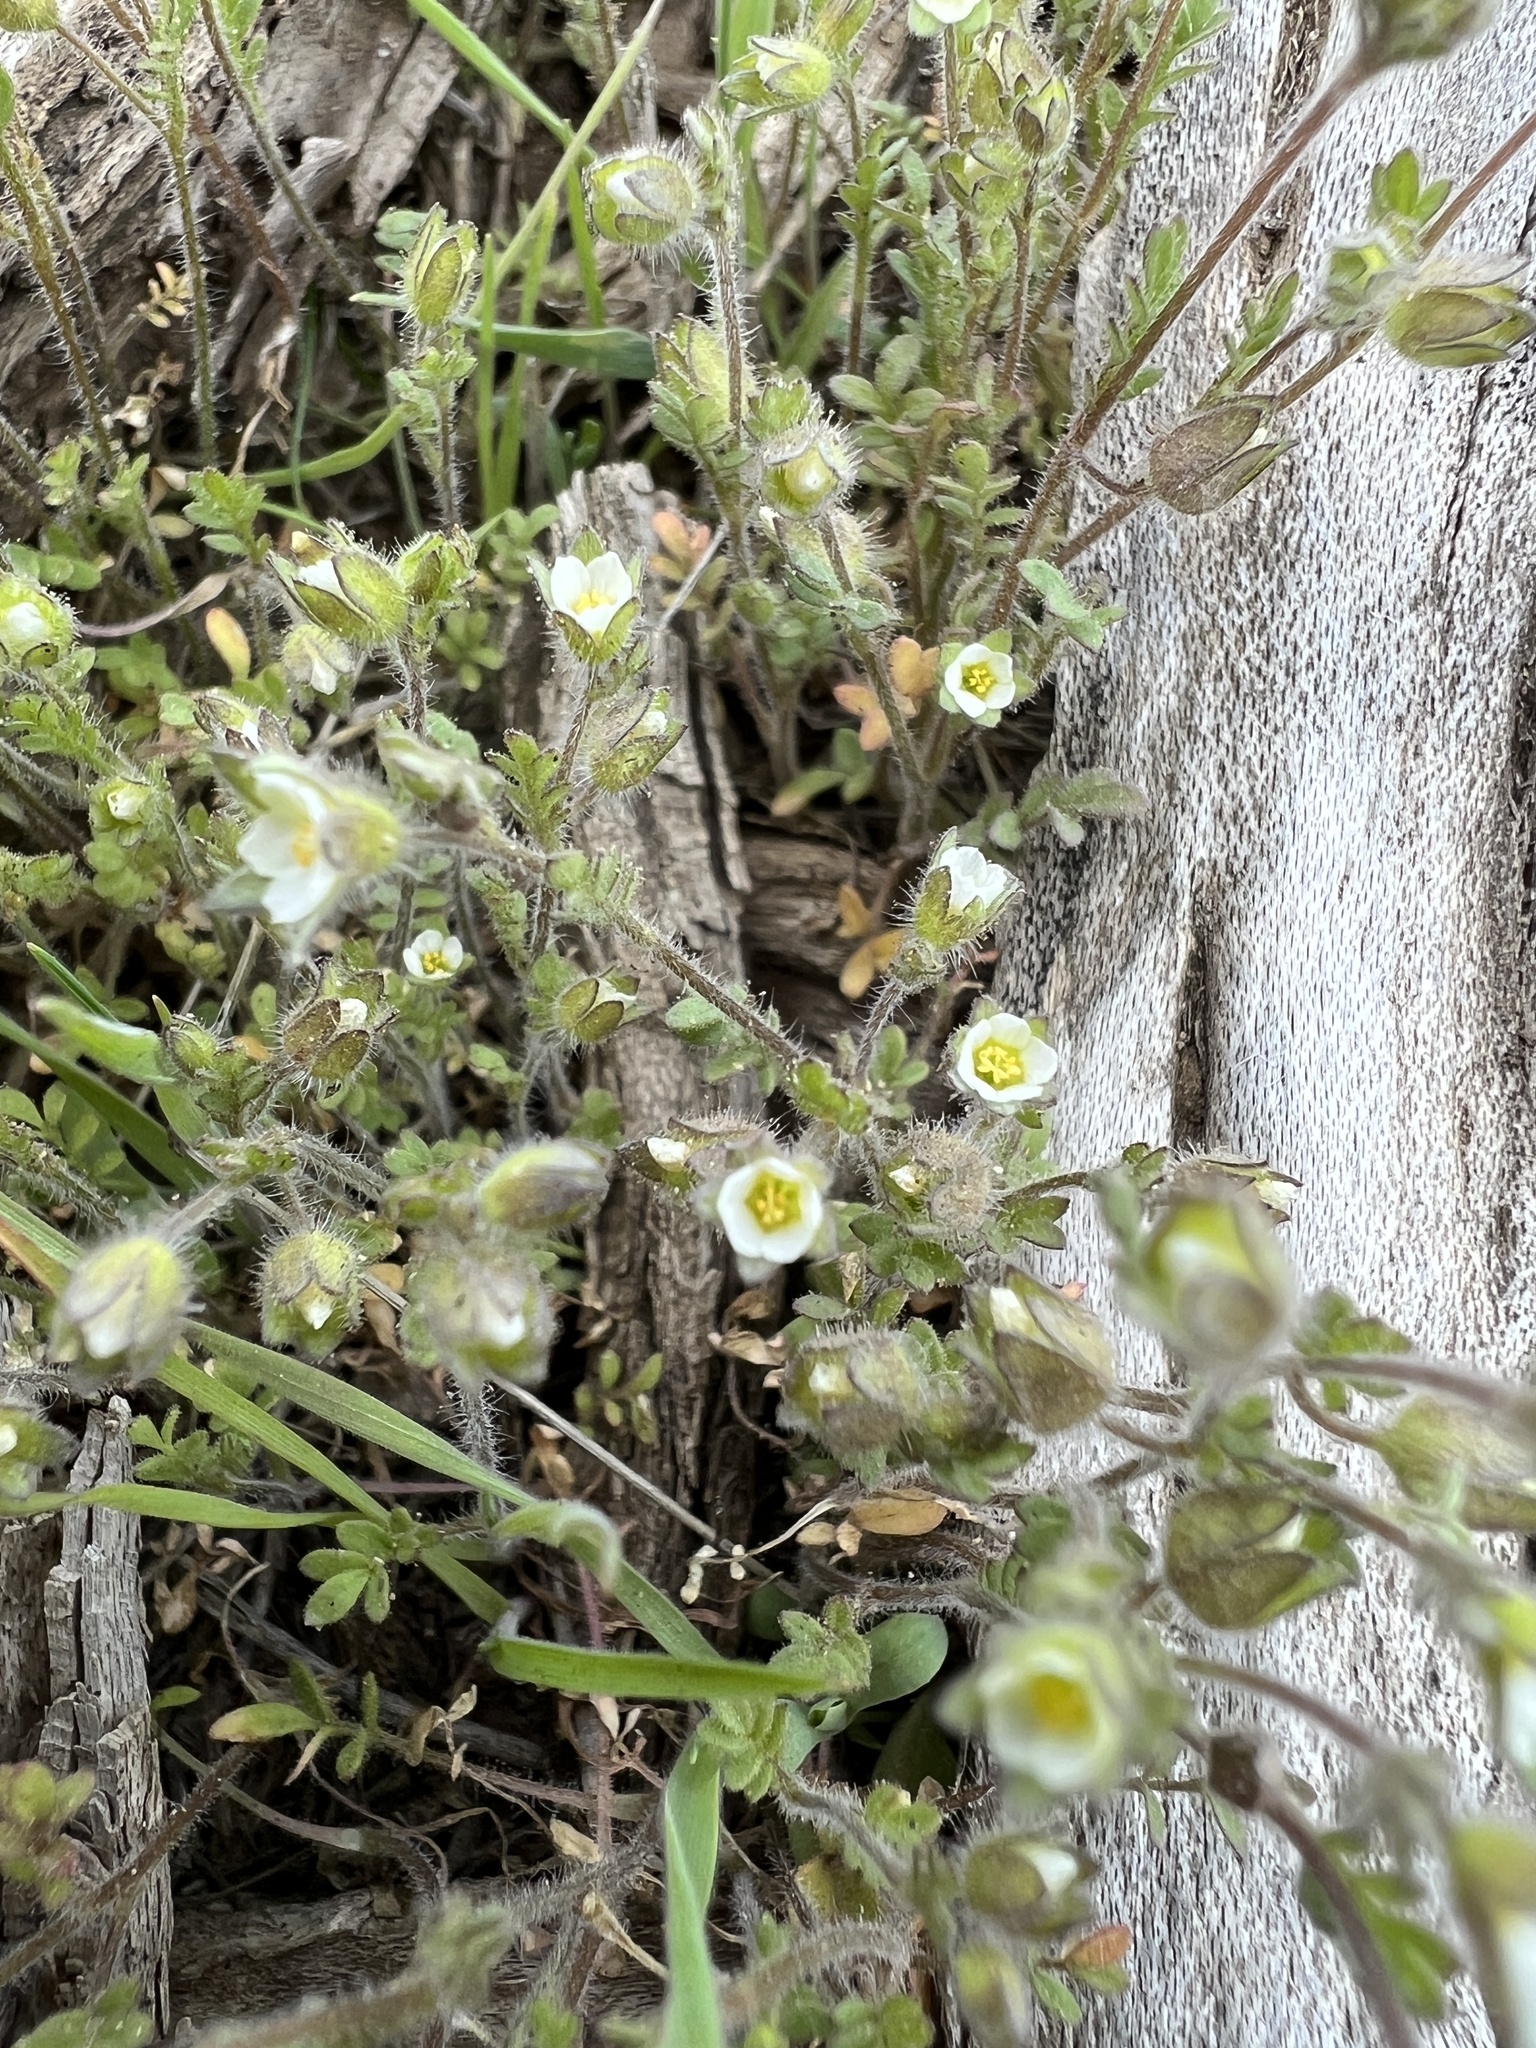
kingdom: Plantae
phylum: Tracheophyta
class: Magnoliopsida
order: Ericales
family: Polemoniaceae
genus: Polemonium
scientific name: Polemonium micranthum
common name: Annual jacob's-ladder
